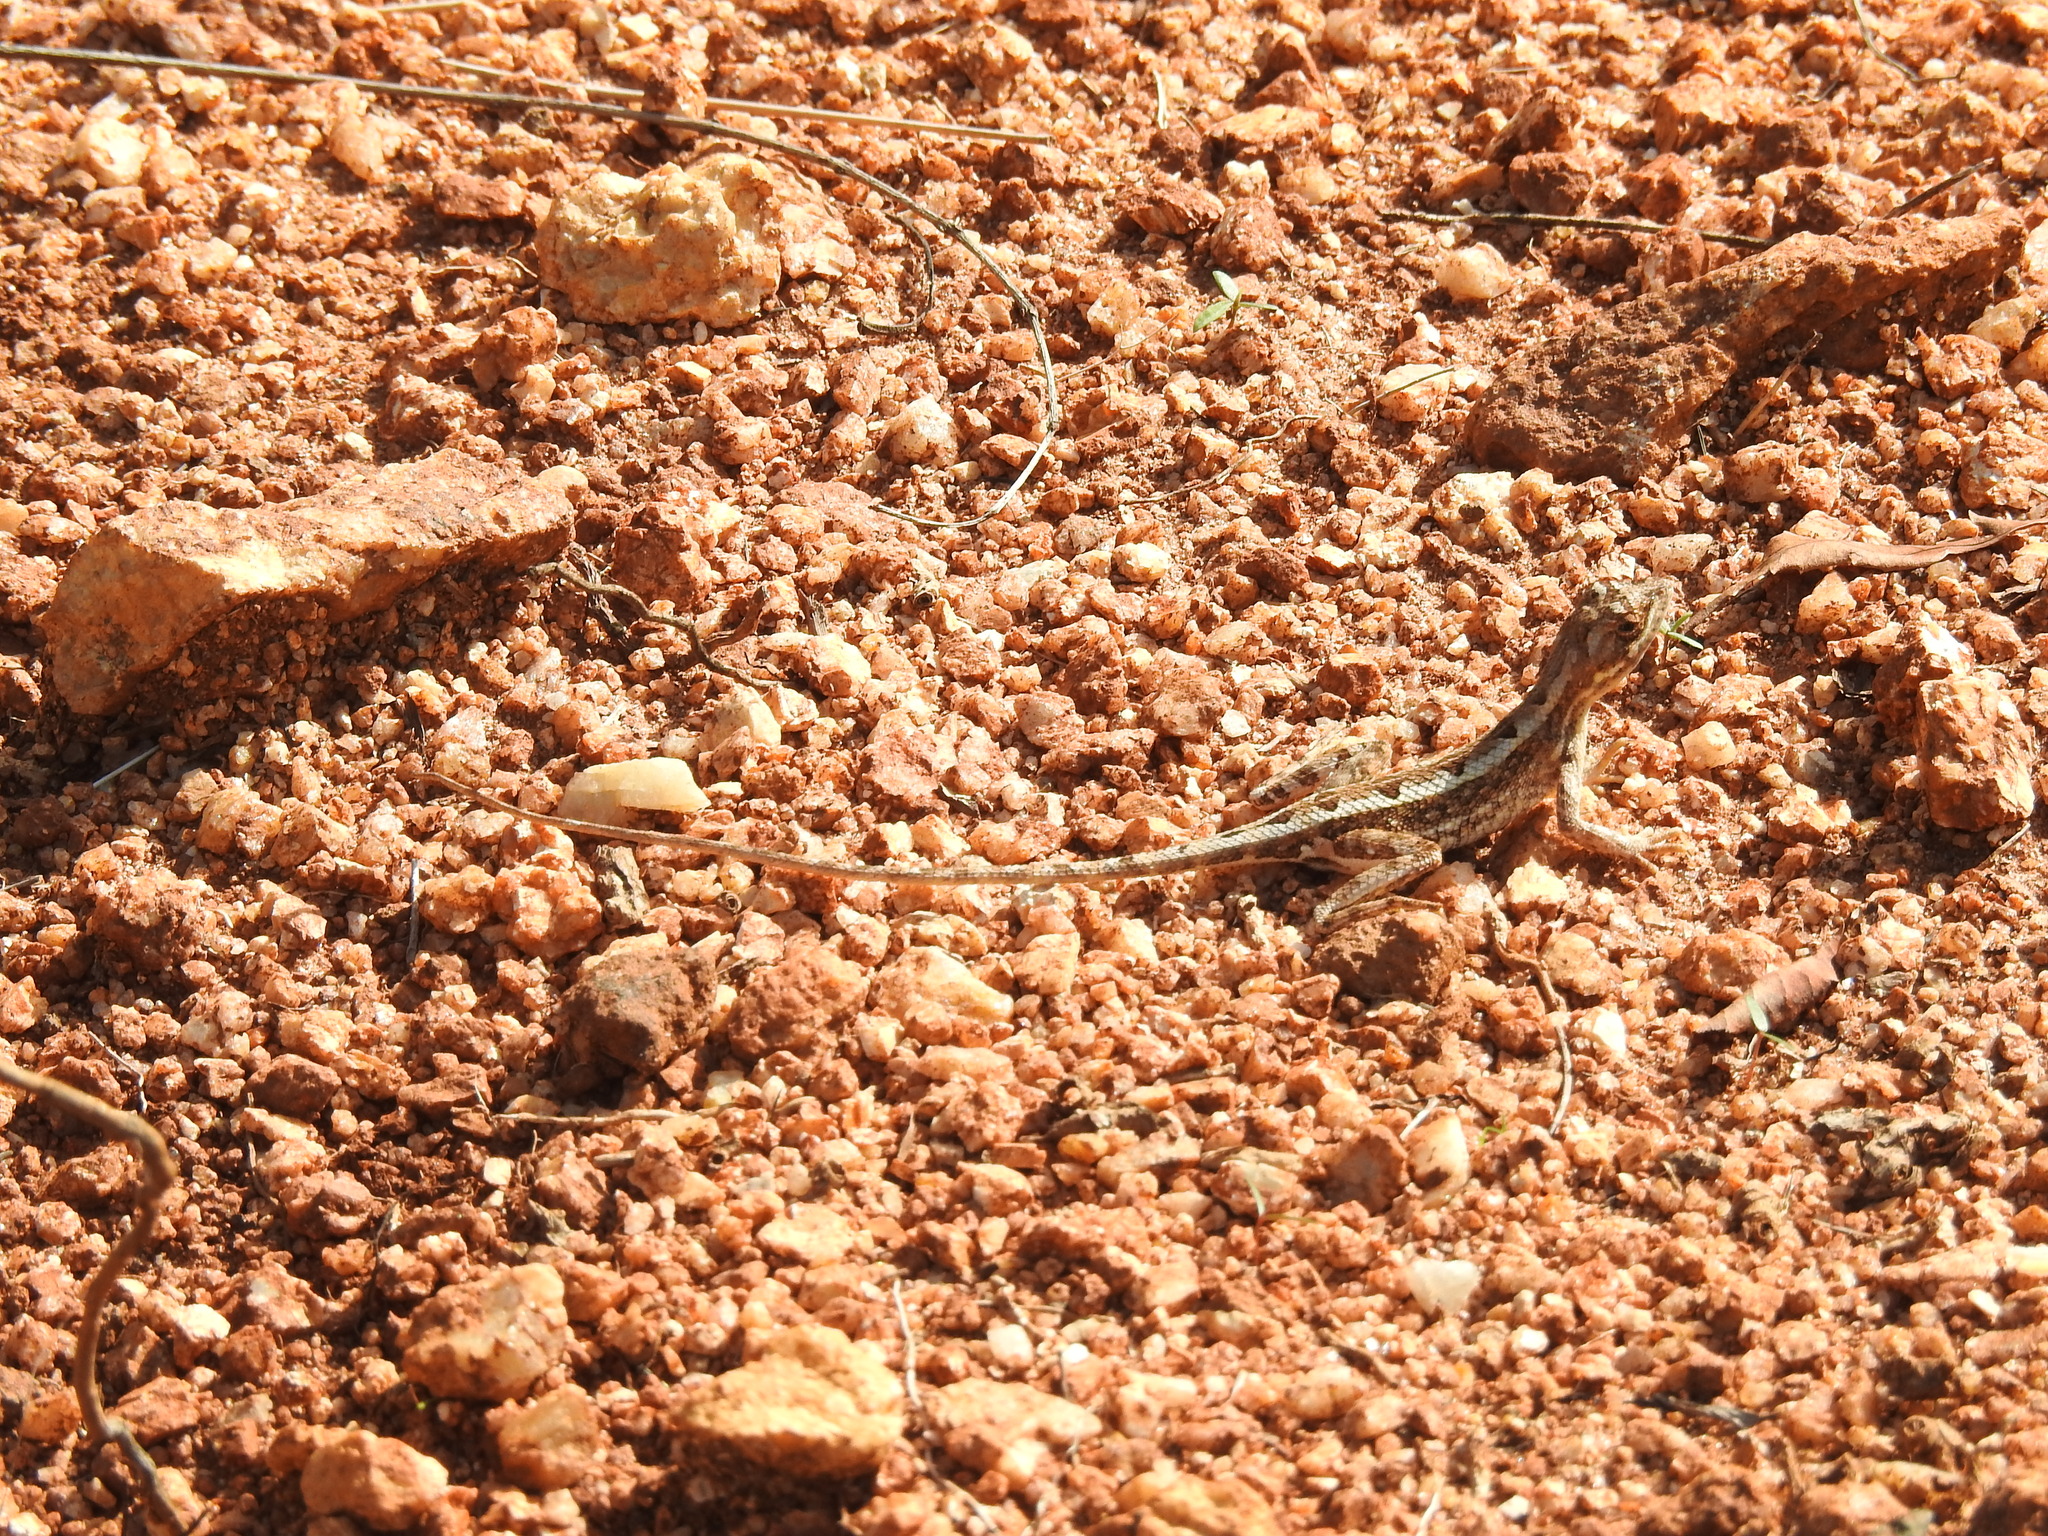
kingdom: Animalia
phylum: Chordata
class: Squamata
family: Agamidae
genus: Sitana
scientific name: Sitana ponticeriana
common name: Pondichéry fan throated lizard
